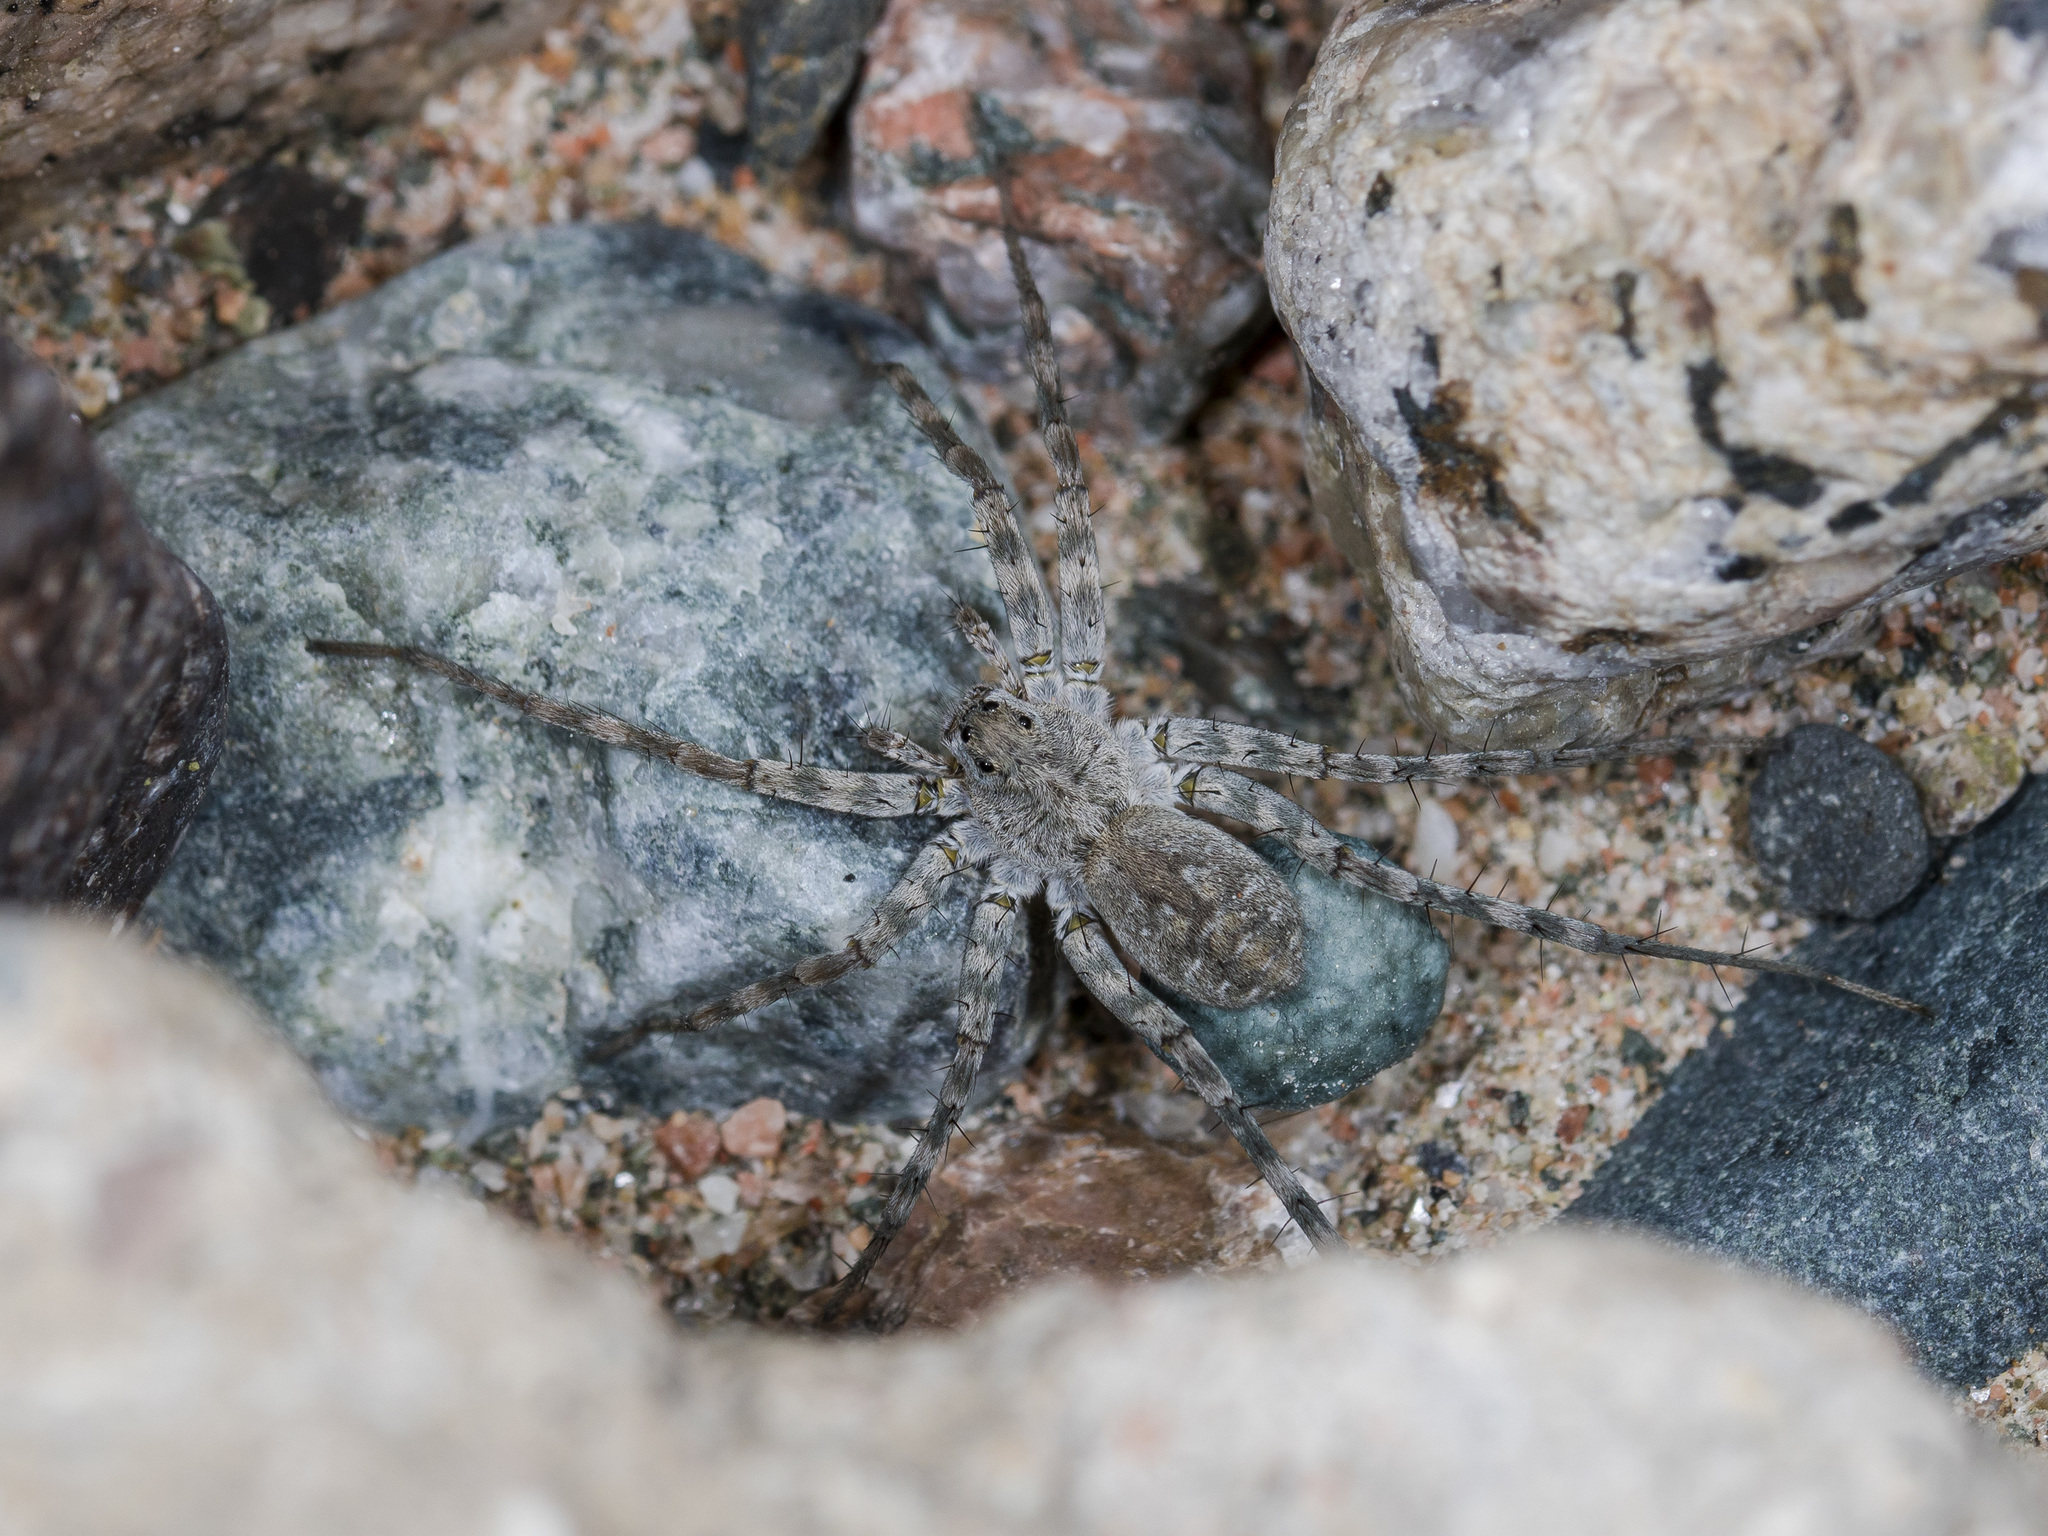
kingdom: Animalia
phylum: Arthropoda
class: Arachnida
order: Araneae
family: Lycosidae
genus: Pardosa
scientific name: Pardosa falcata
